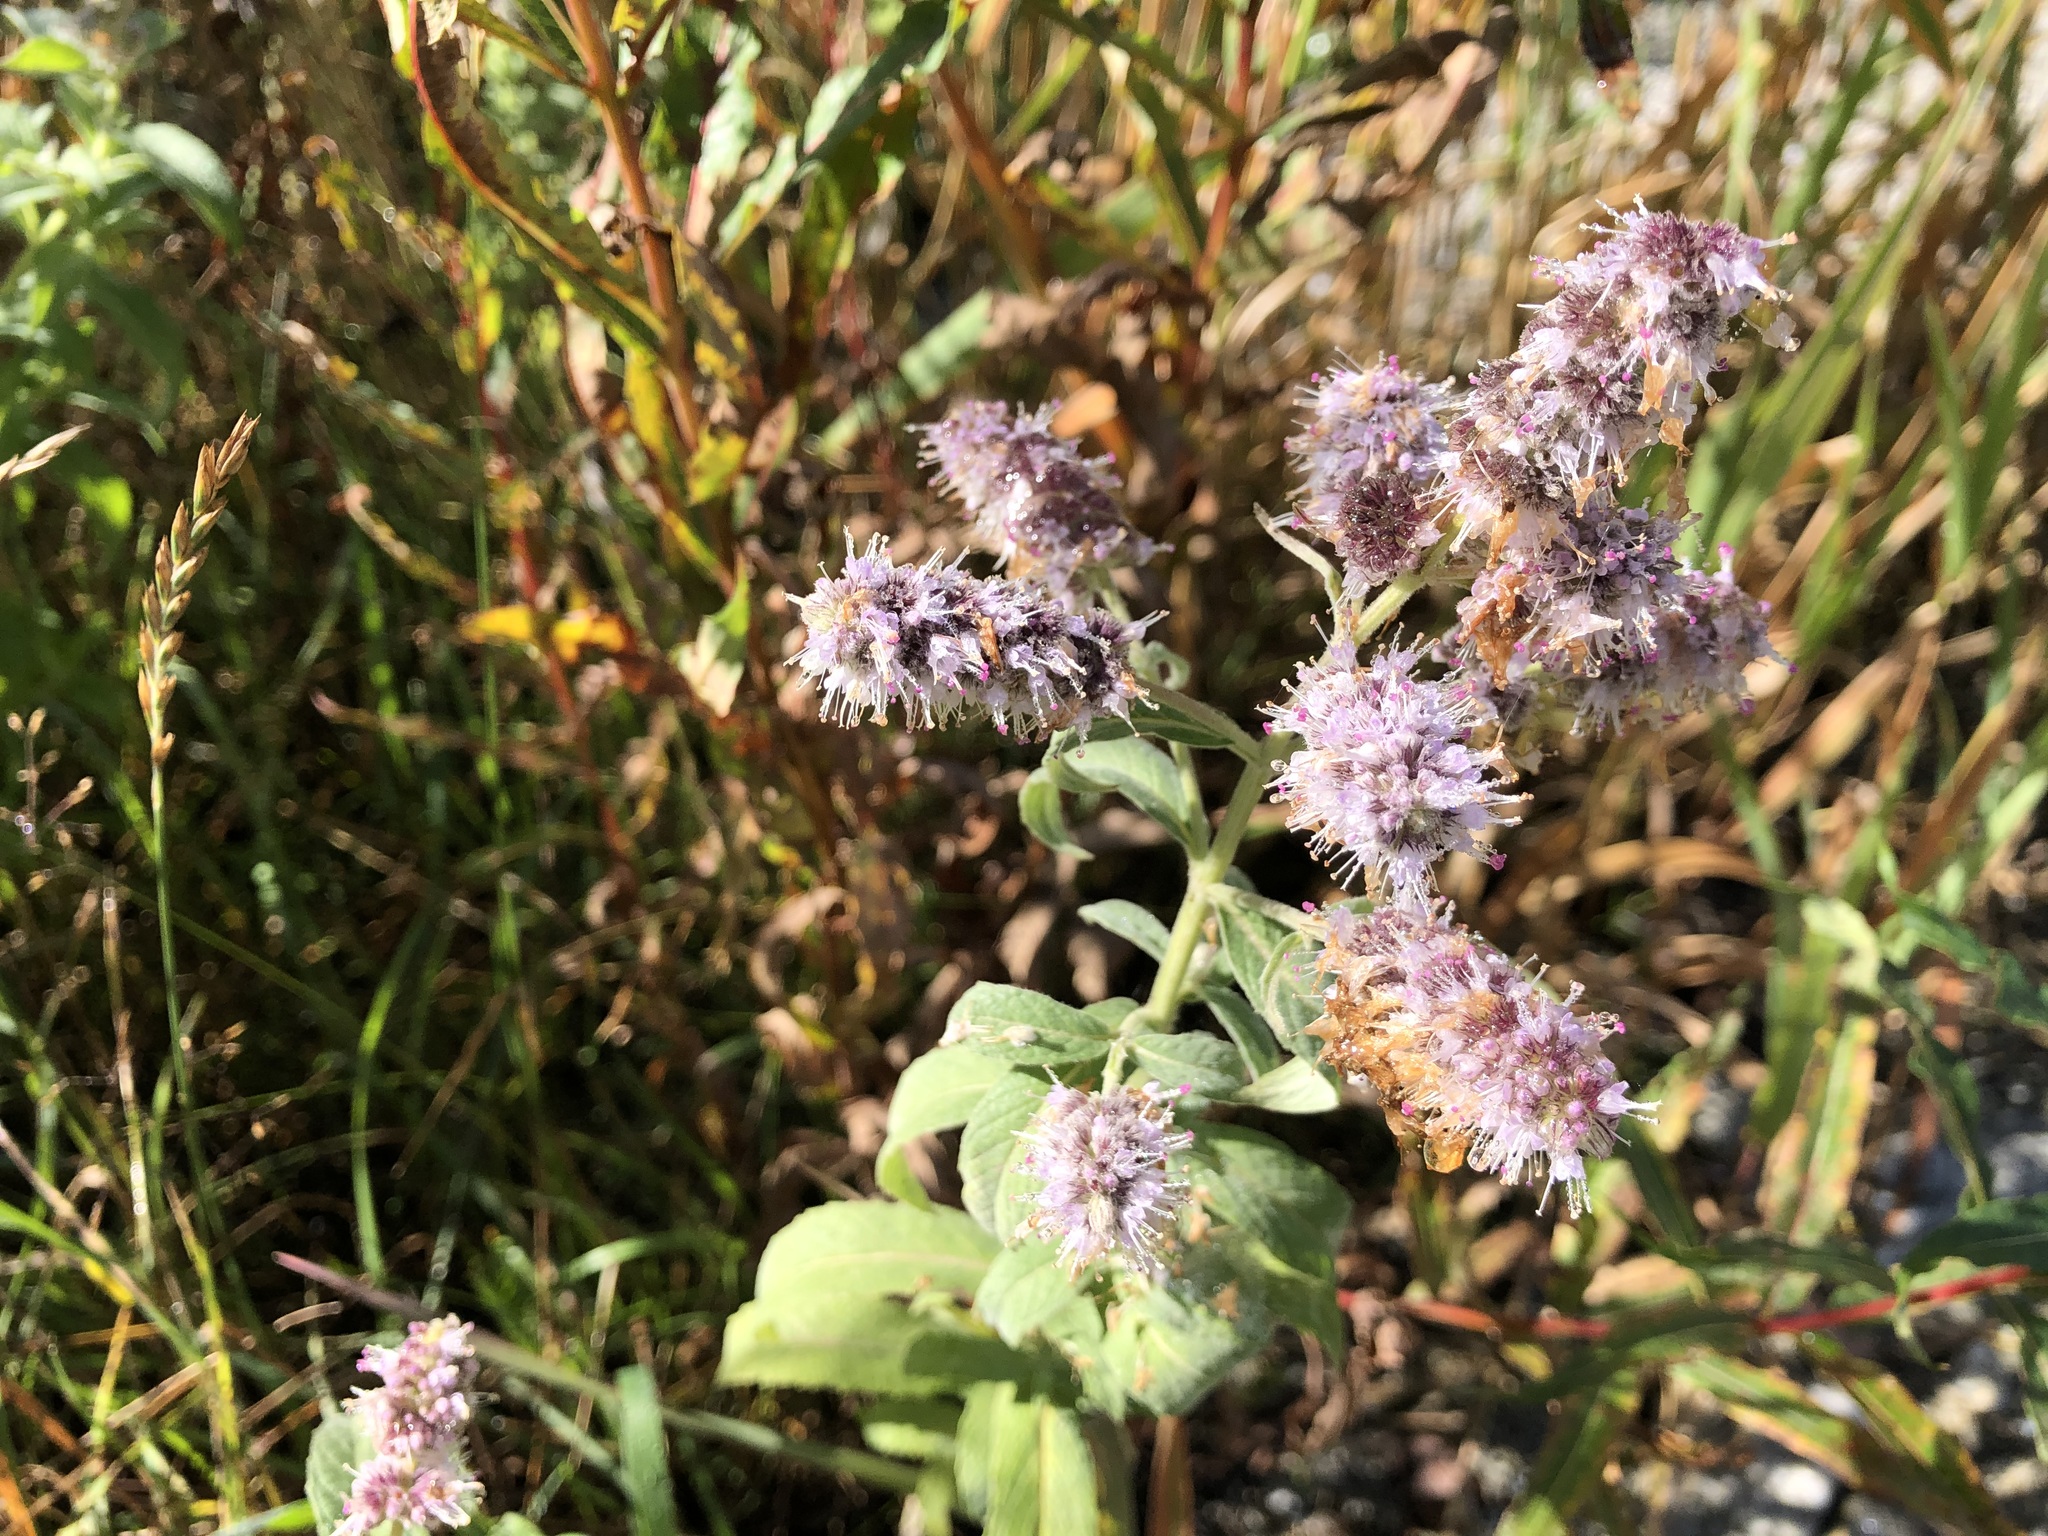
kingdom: Plantae
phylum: Tracheophyta
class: Magnoliopsida
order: Lamiales
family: Lamiaceae
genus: Mentha
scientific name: Mentha longifolia
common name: Horse mint
